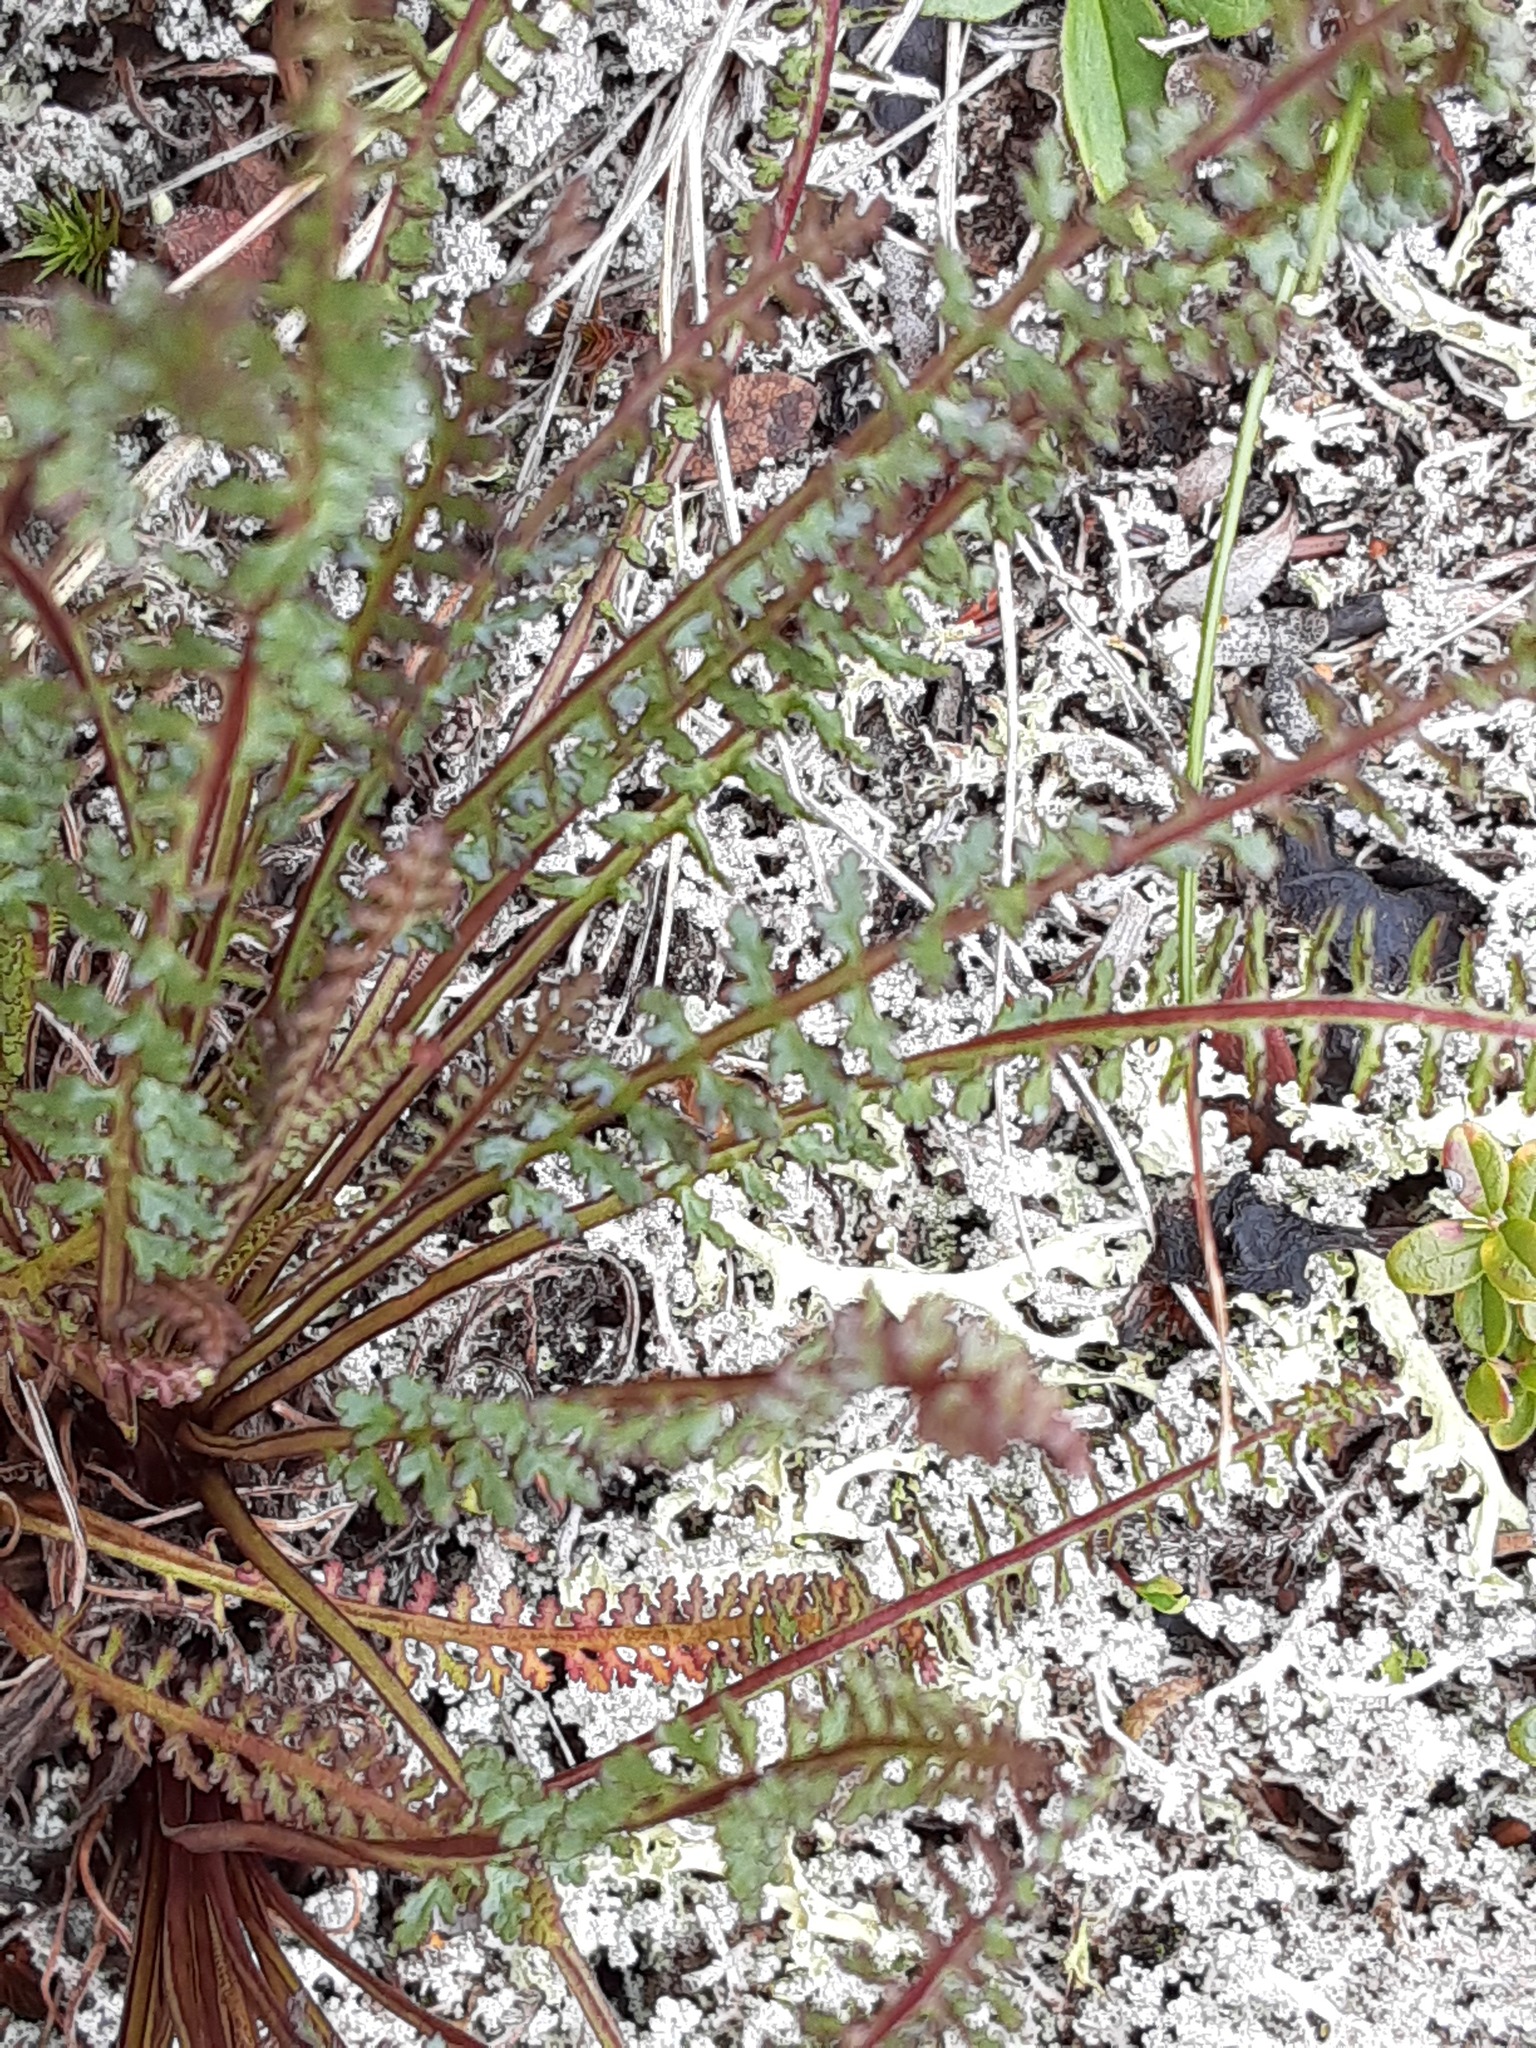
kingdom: Plantae
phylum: Tracheophyta
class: Magnoliopsida
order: Lamiales
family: Orobanchaceae
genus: Pedicularis
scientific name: Pedicularis langsdorffii
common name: Langsdorff's lousewort
